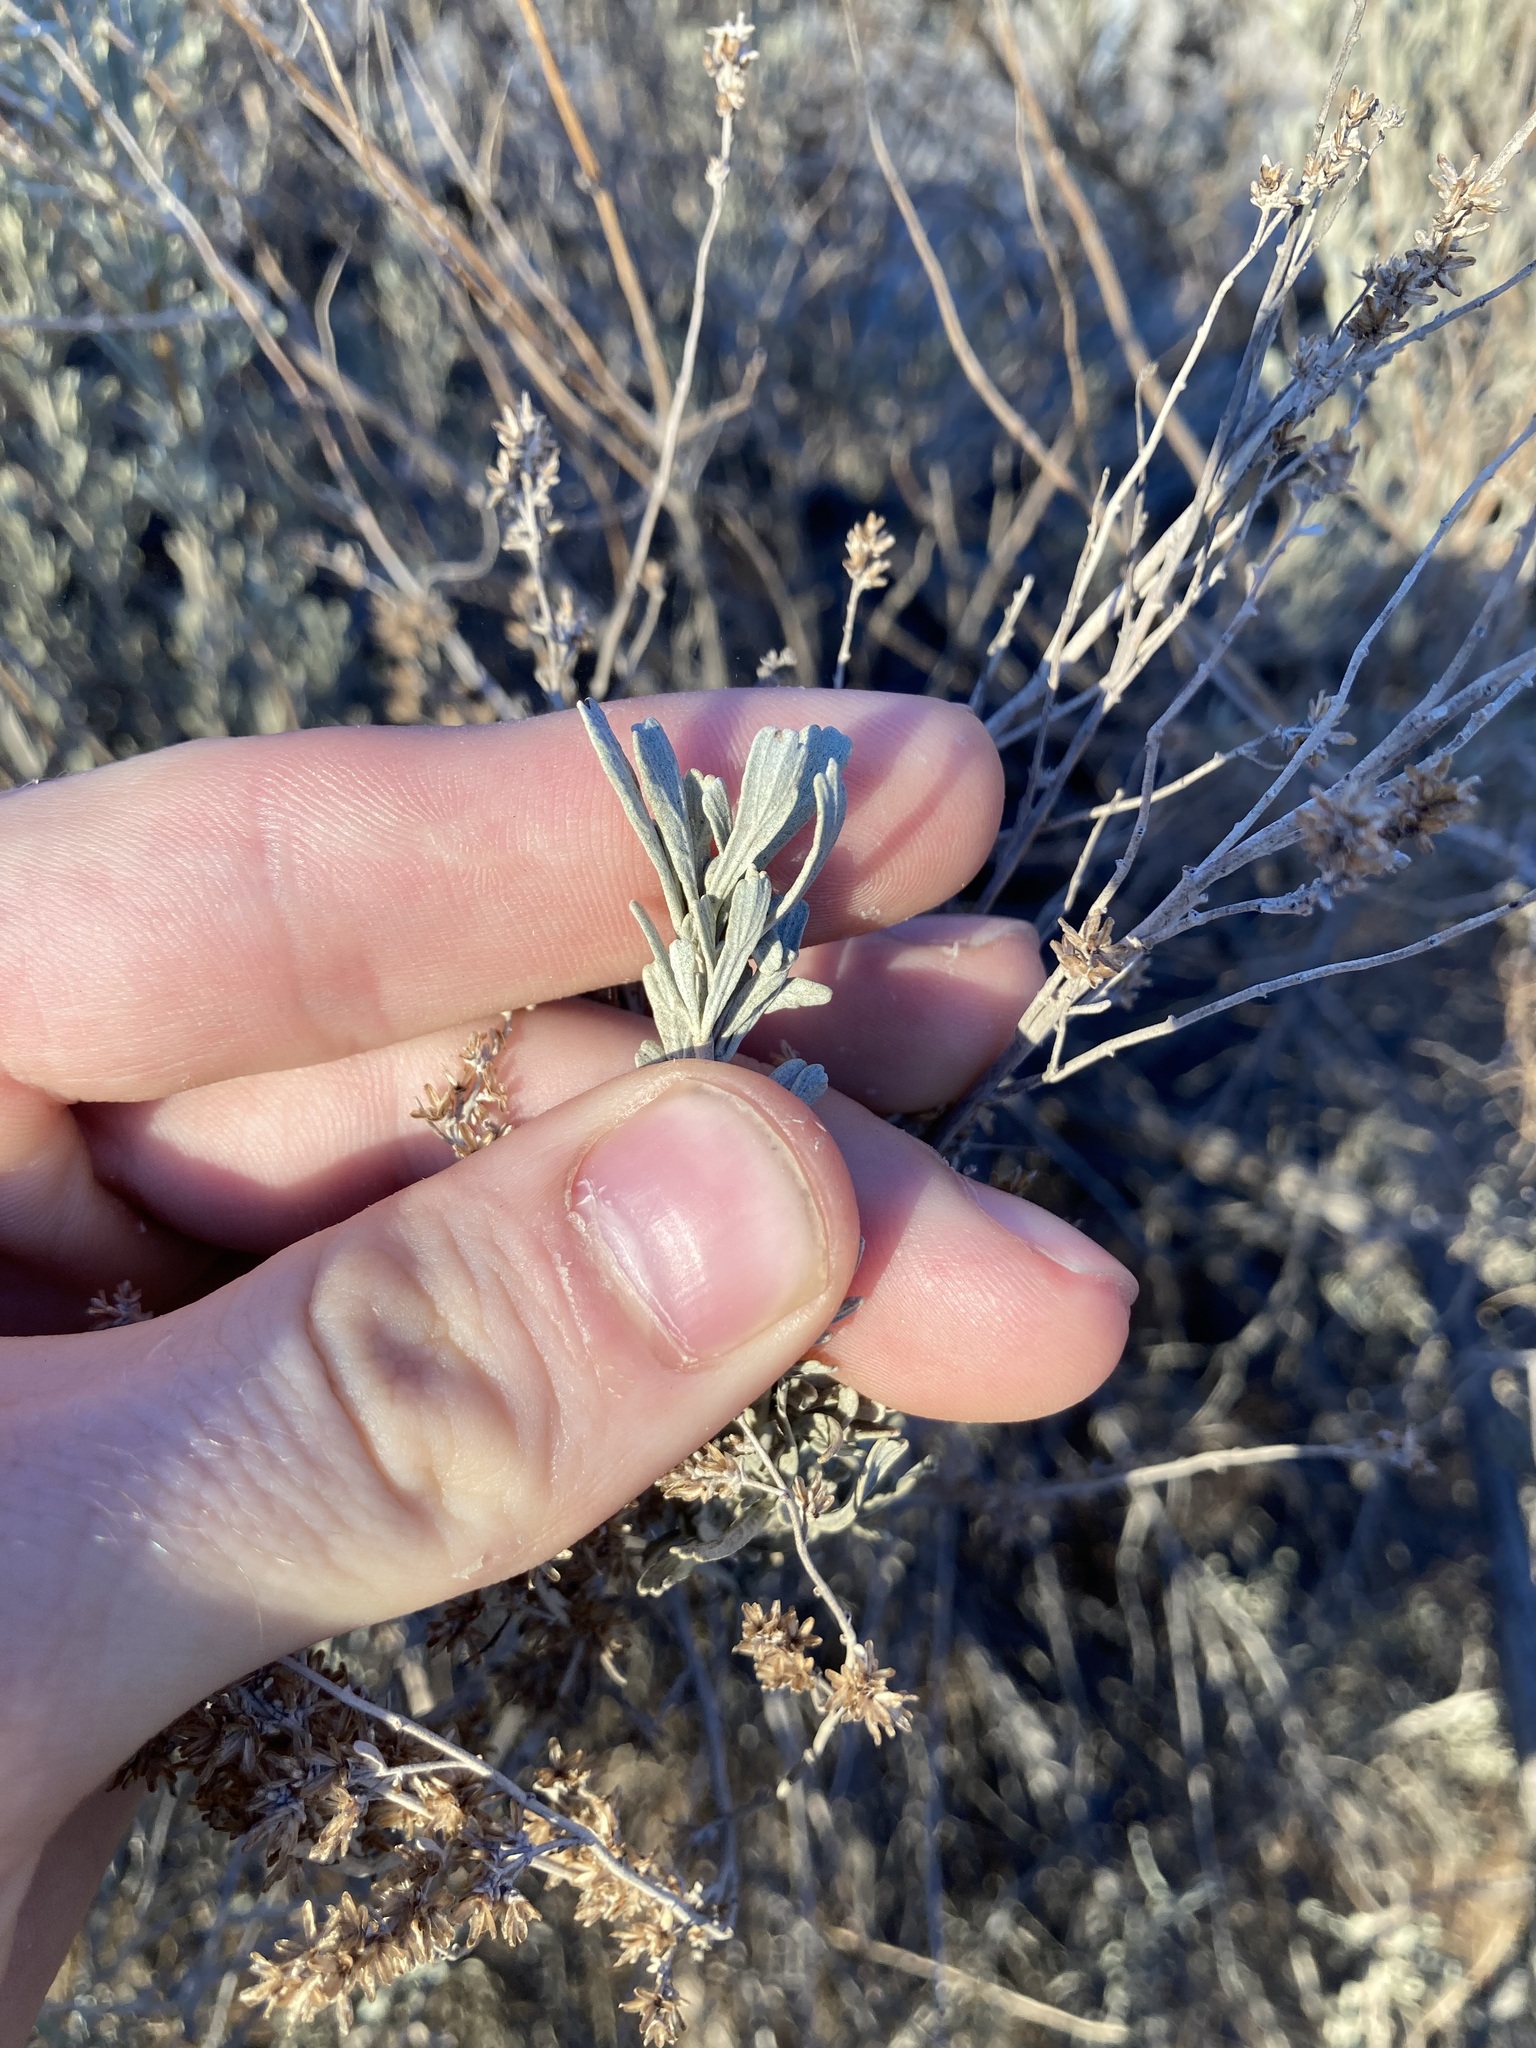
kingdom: Plantae
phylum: Tracheophyta
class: Magnoliopsida
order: Asterales
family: Asteraceae
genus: Artemisia
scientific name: Artemisia tridentata
